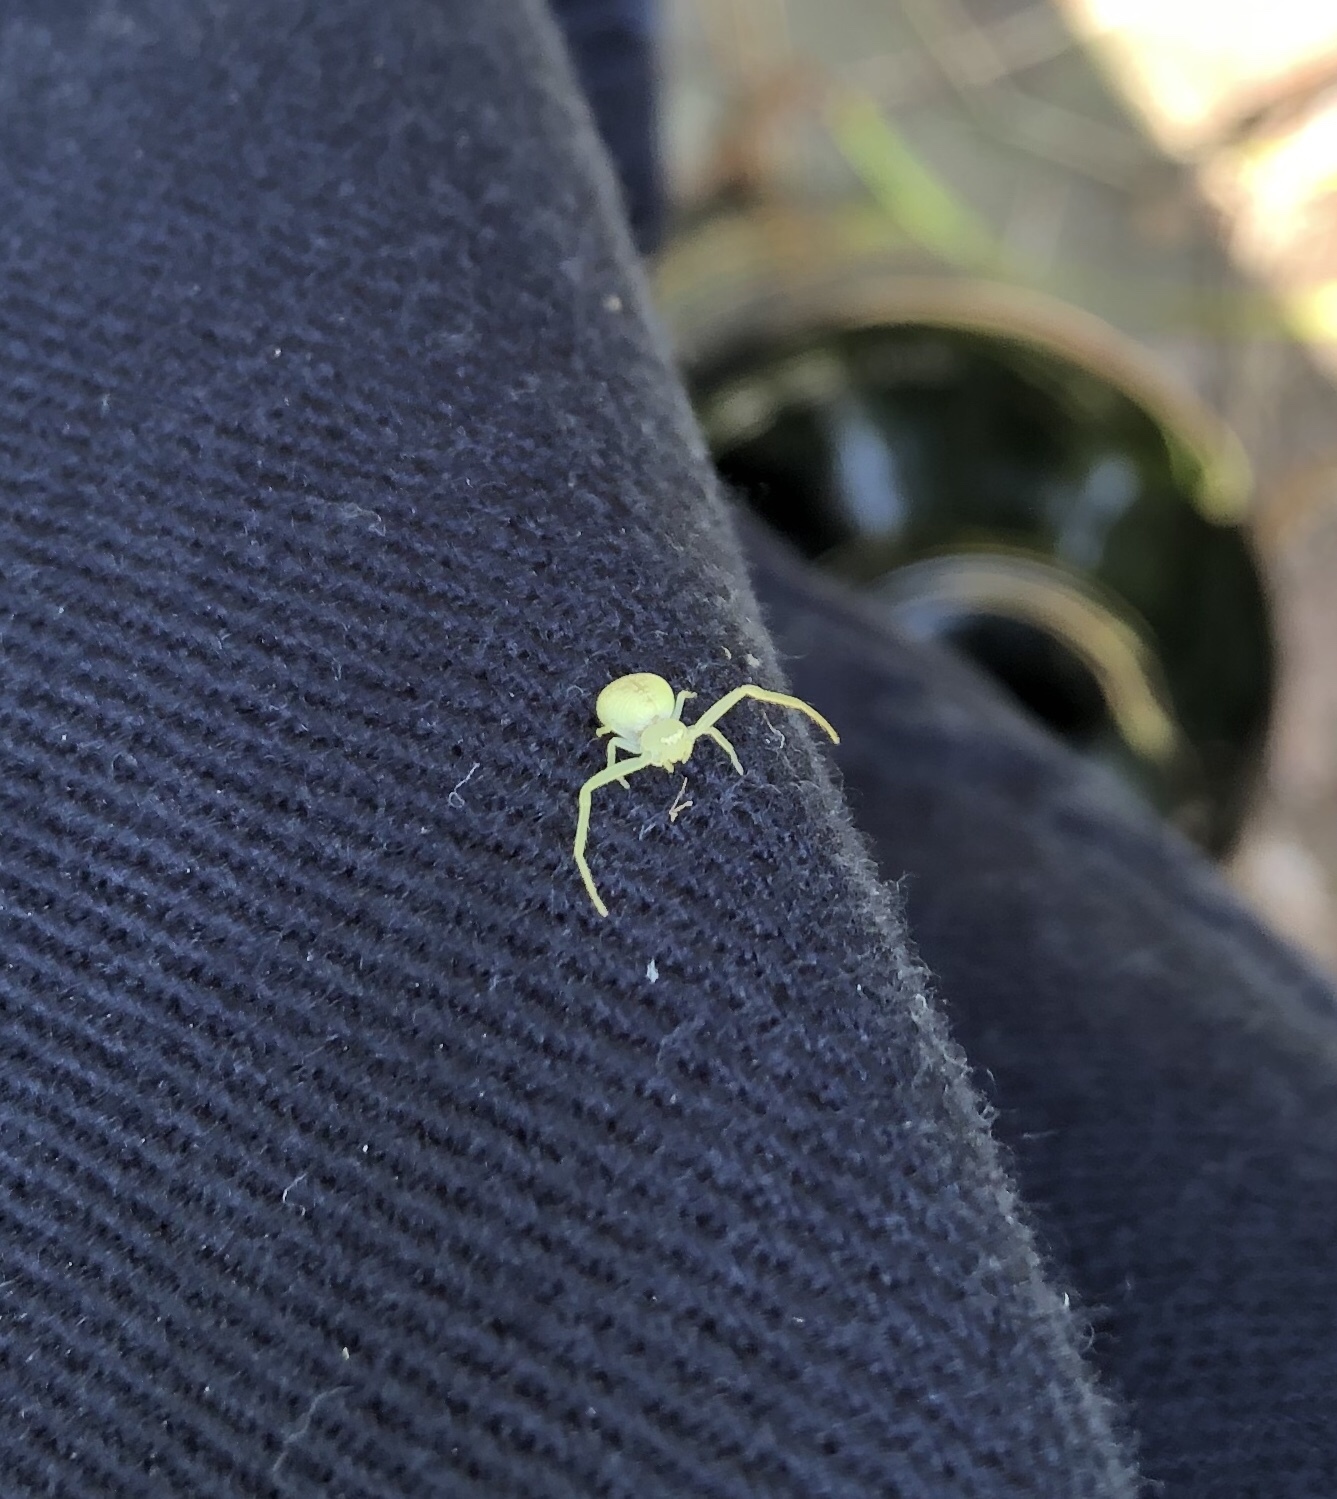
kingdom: Animalia
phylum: Arthropoda
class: Arachnida
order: Araneae
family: Thomisidae
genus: Misumessus
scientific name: Misumessus oblongus
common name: American green crab spider
